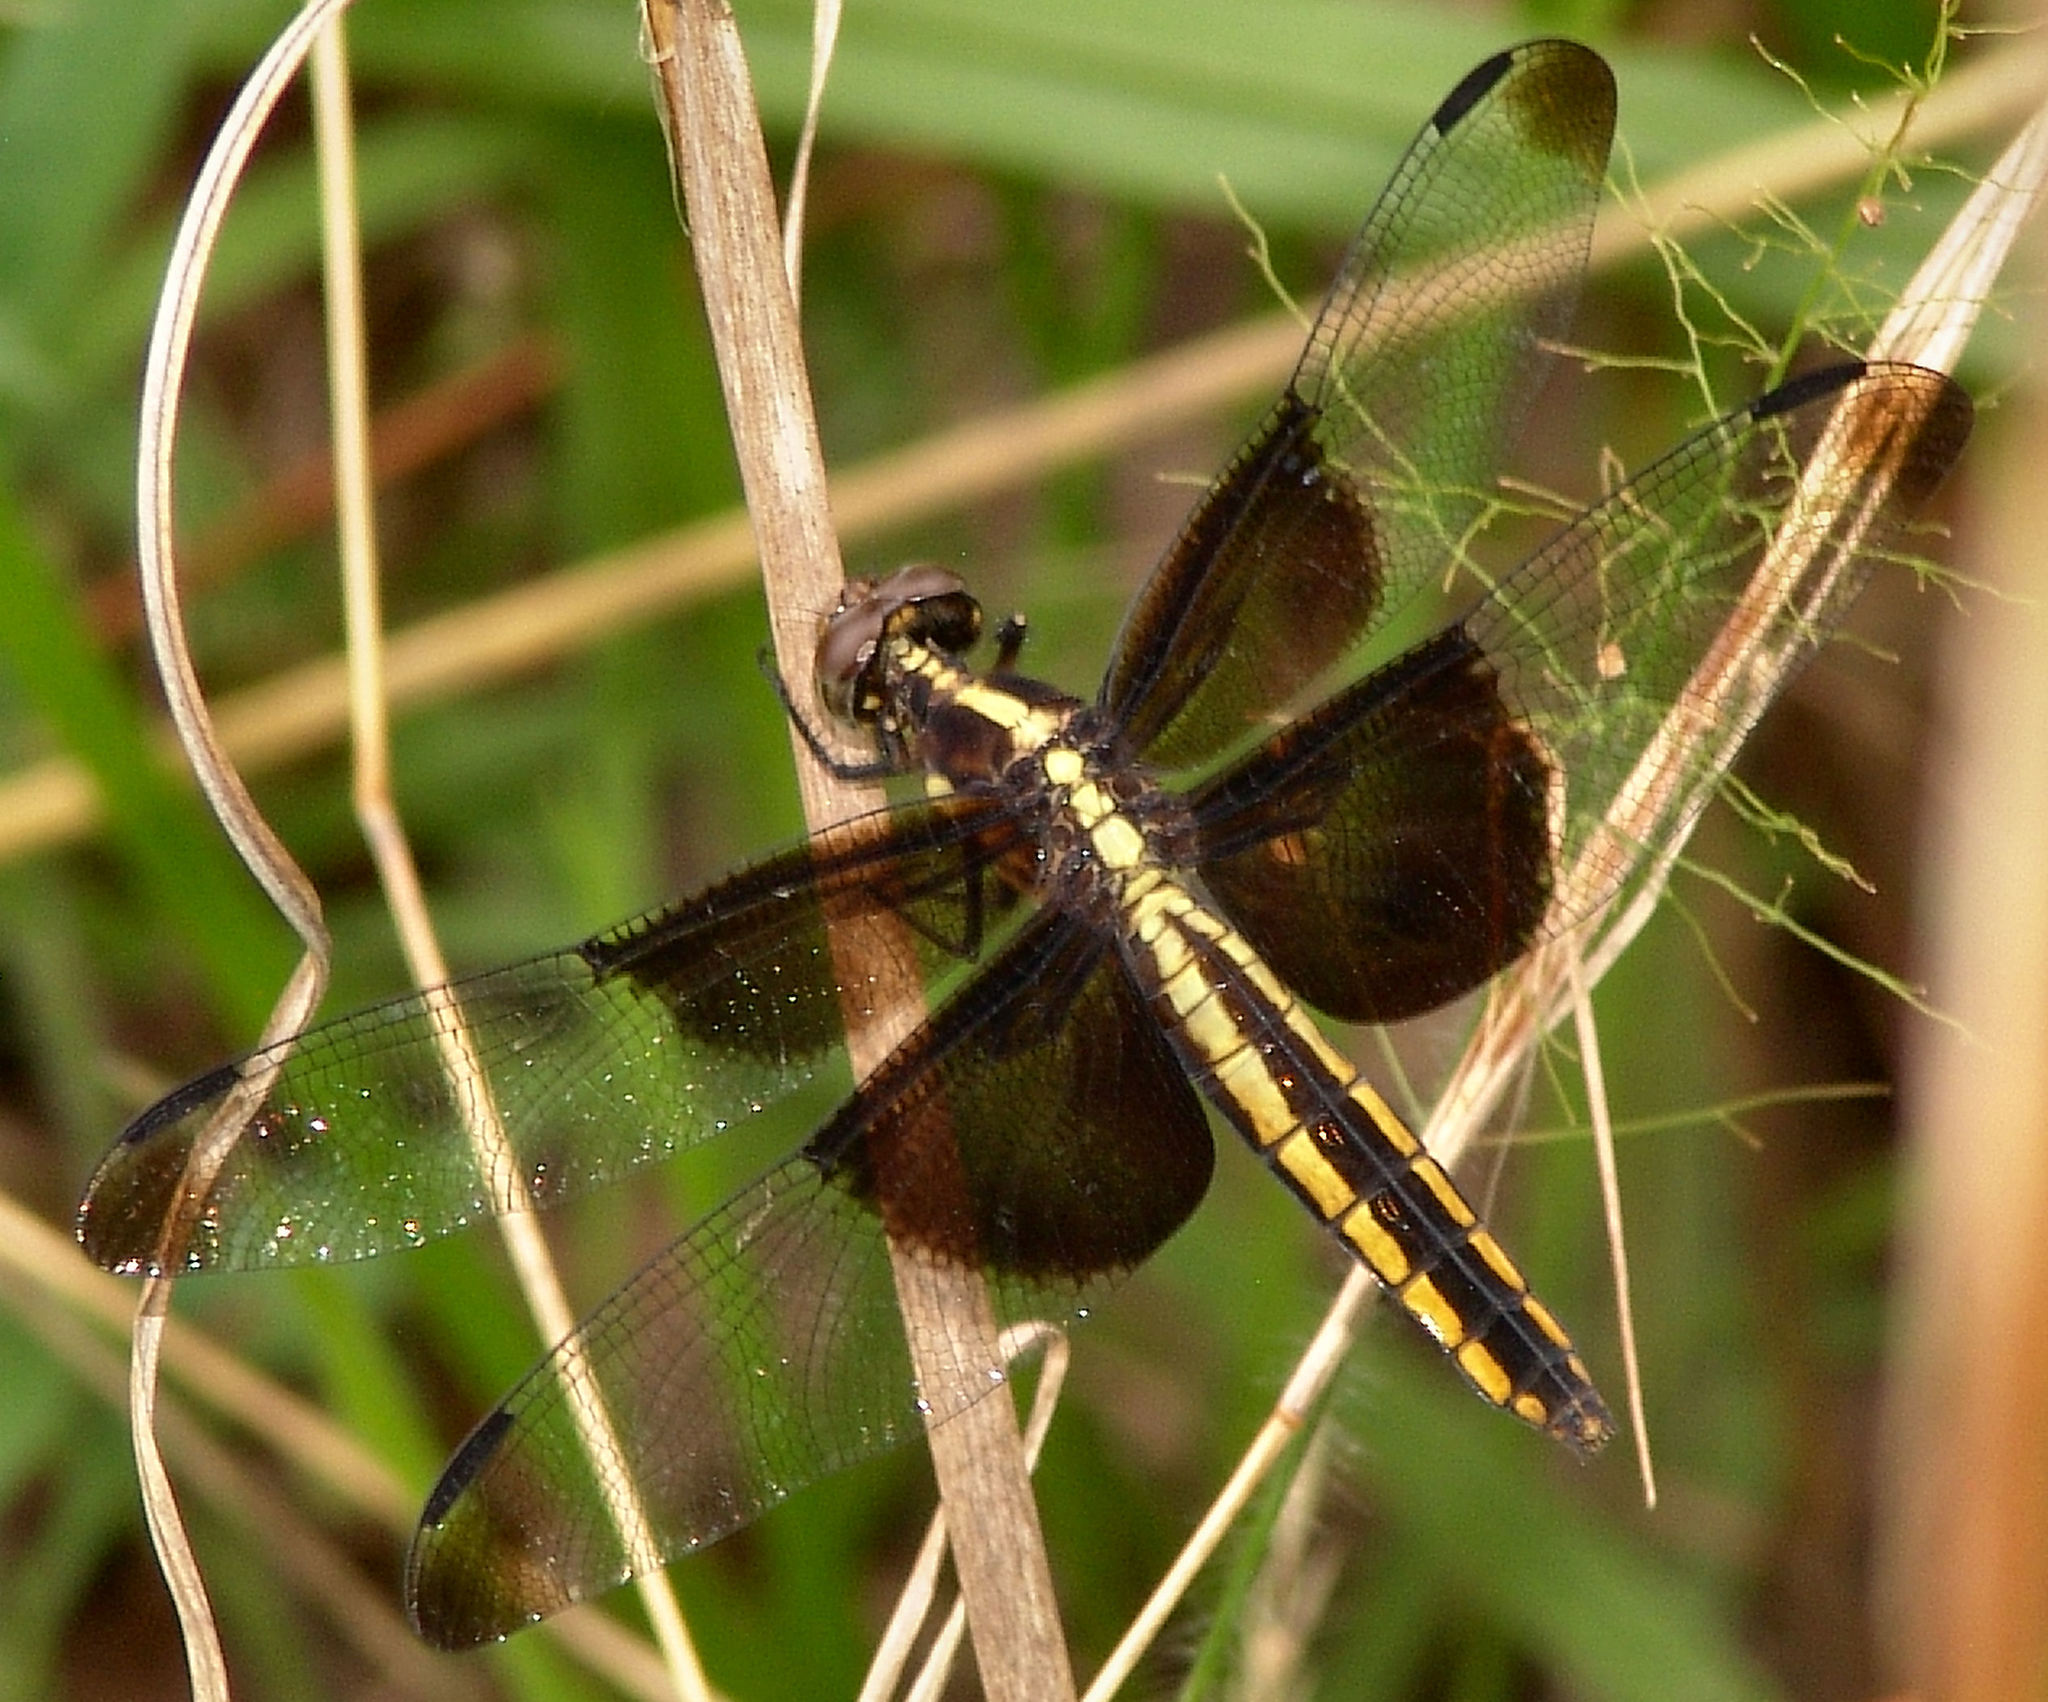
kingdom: Animalia
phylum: Arthropoda
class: Insecta
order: Odonata
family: Libellulidae
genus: Libellula
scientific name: Libellula luctuosa
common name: Widow skimmer
